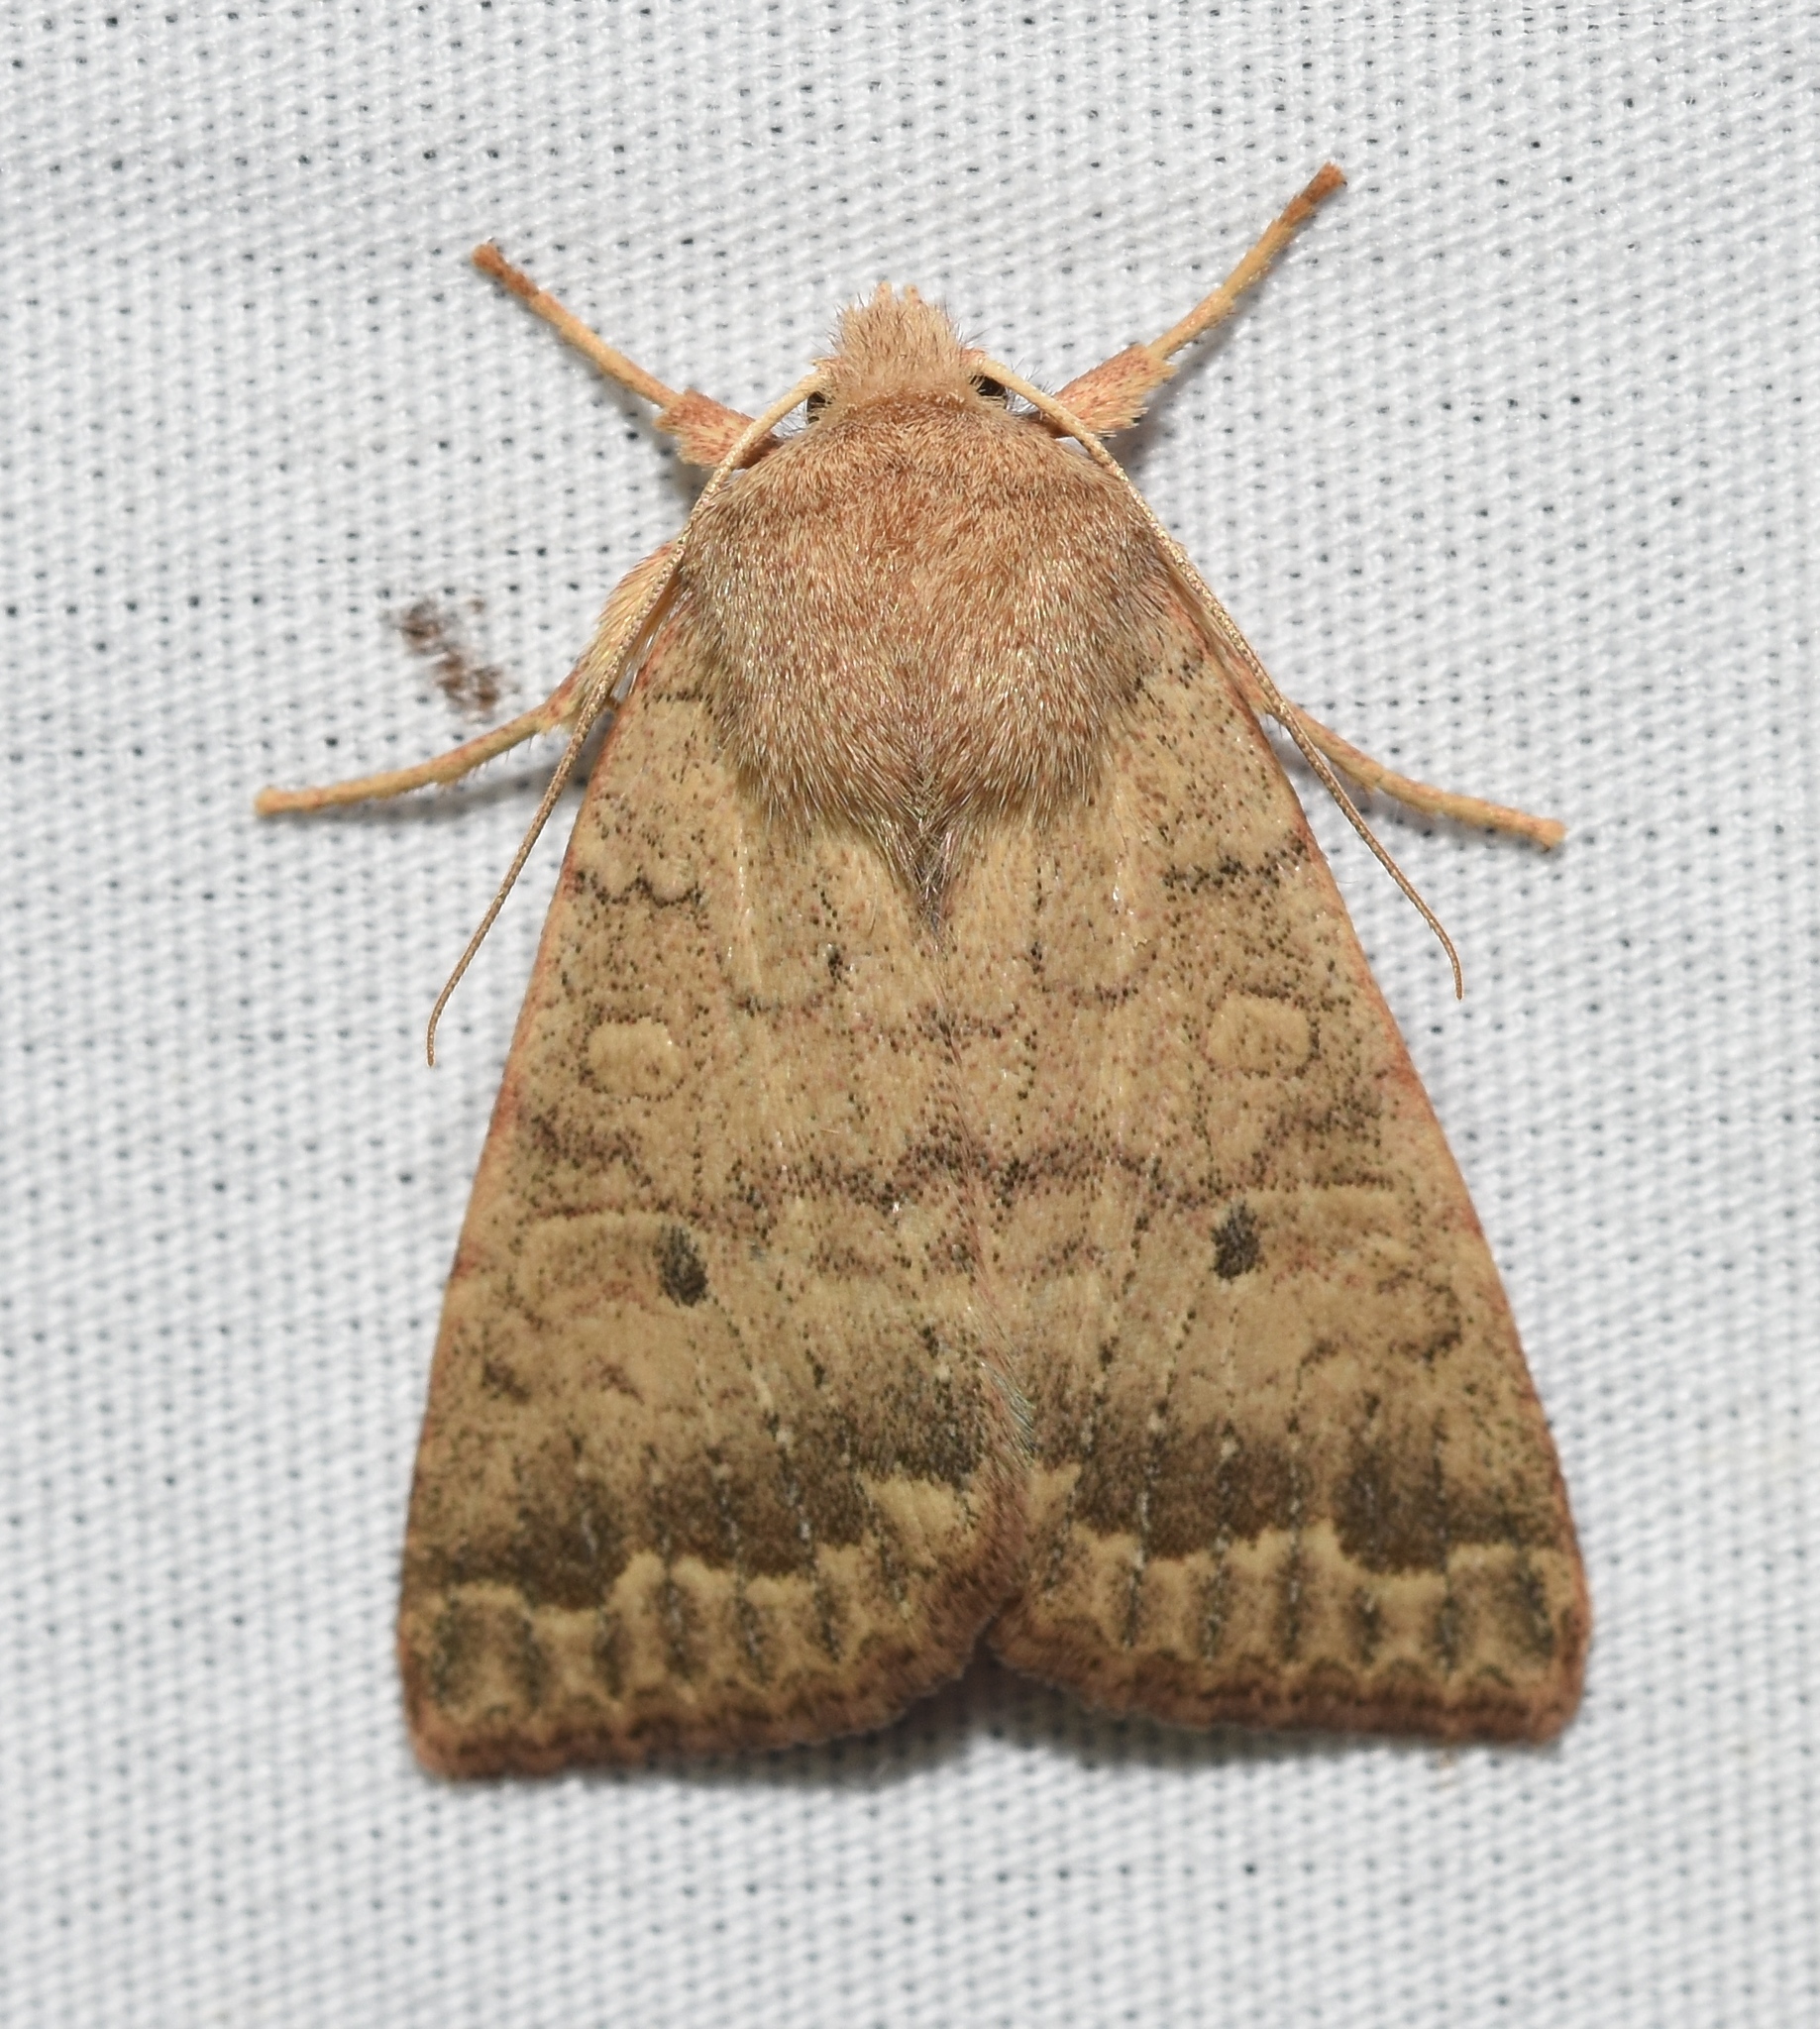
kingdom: Animalia
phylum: Arthropoda
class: Insecta
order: Lepidoptera
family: Noctuidae
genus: Agrochola
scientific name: Agrochola bicolorago
